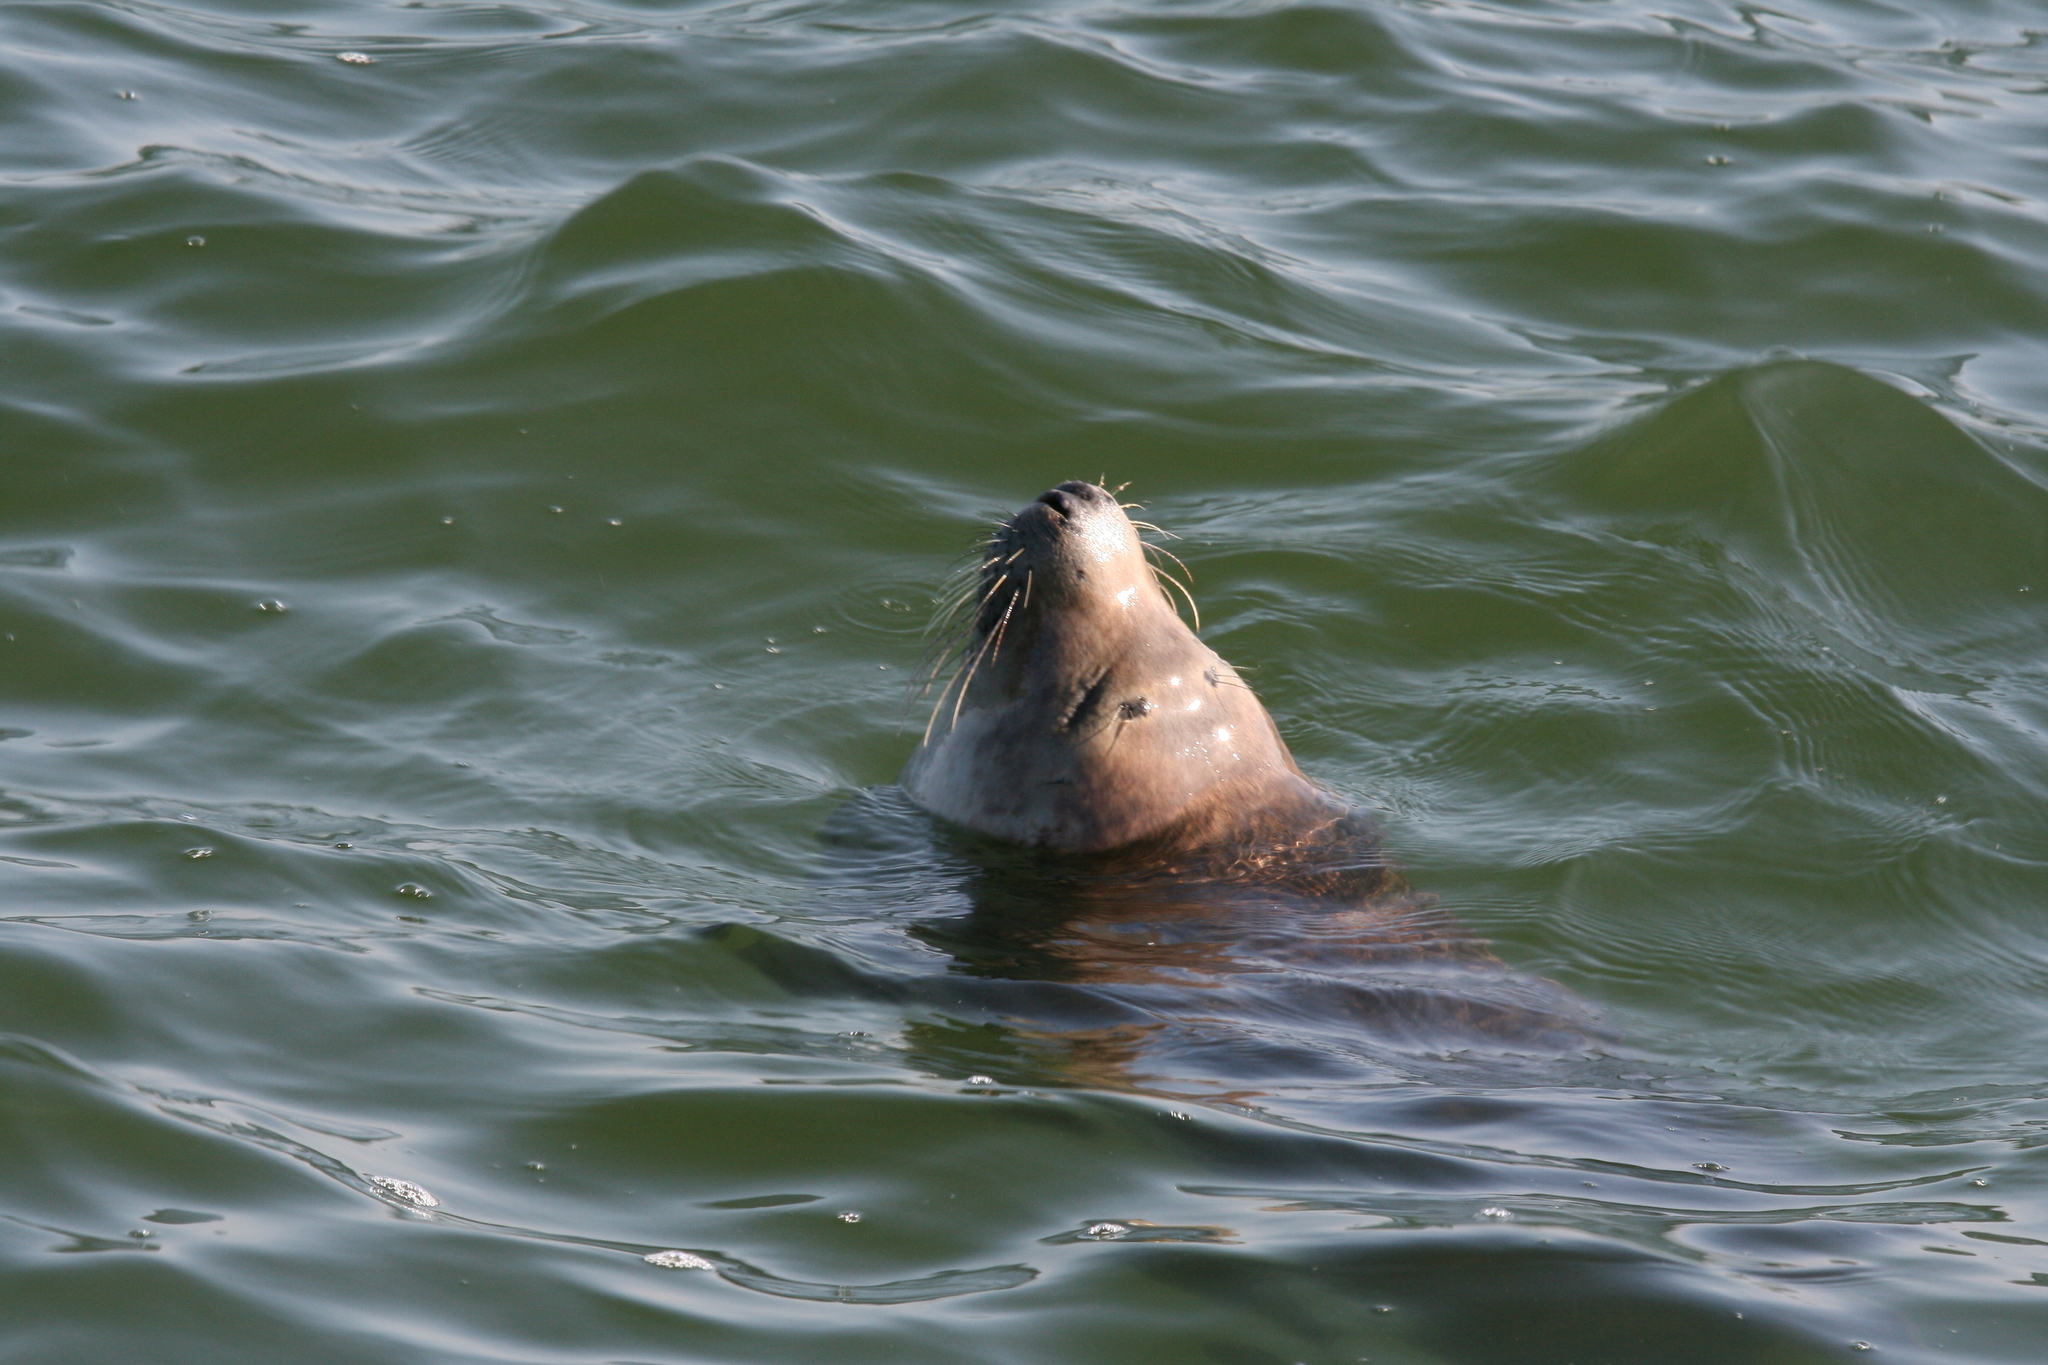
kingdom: Animalia
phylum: Chordata
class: Mammalia
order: Carnivora
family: Phocidae
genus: Halichoerus
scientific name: Halichoerus grypus
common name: Grey seal
